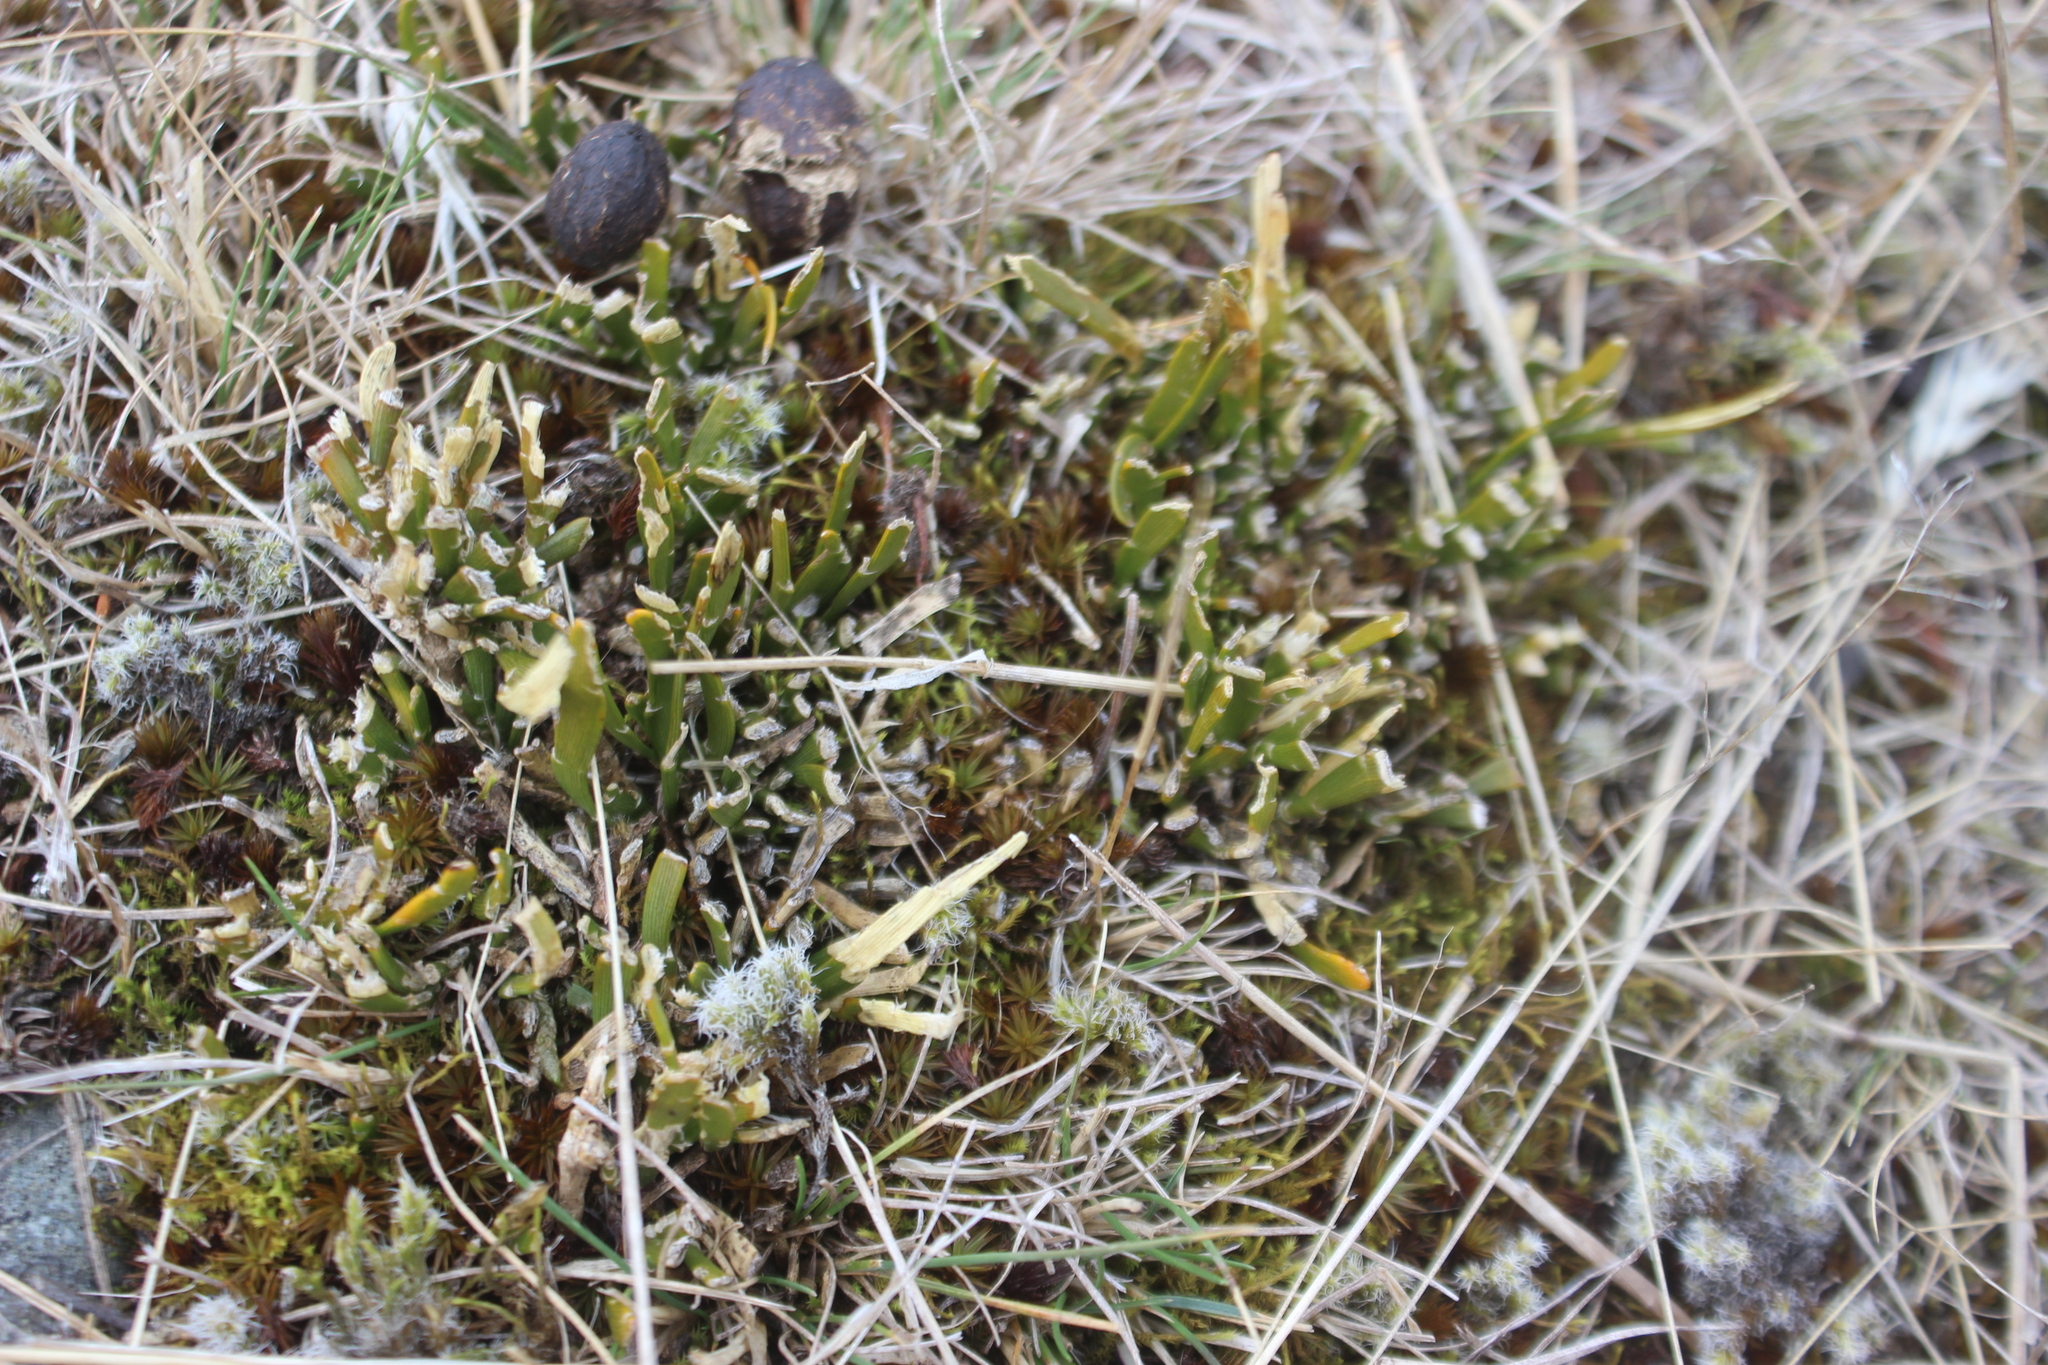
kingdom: Plantae
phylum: Tracheophyta
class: Magnoliopsida
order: Fabales
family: Fabaceae
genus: Carmichaelia
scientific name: Carmichaelia corrugata
